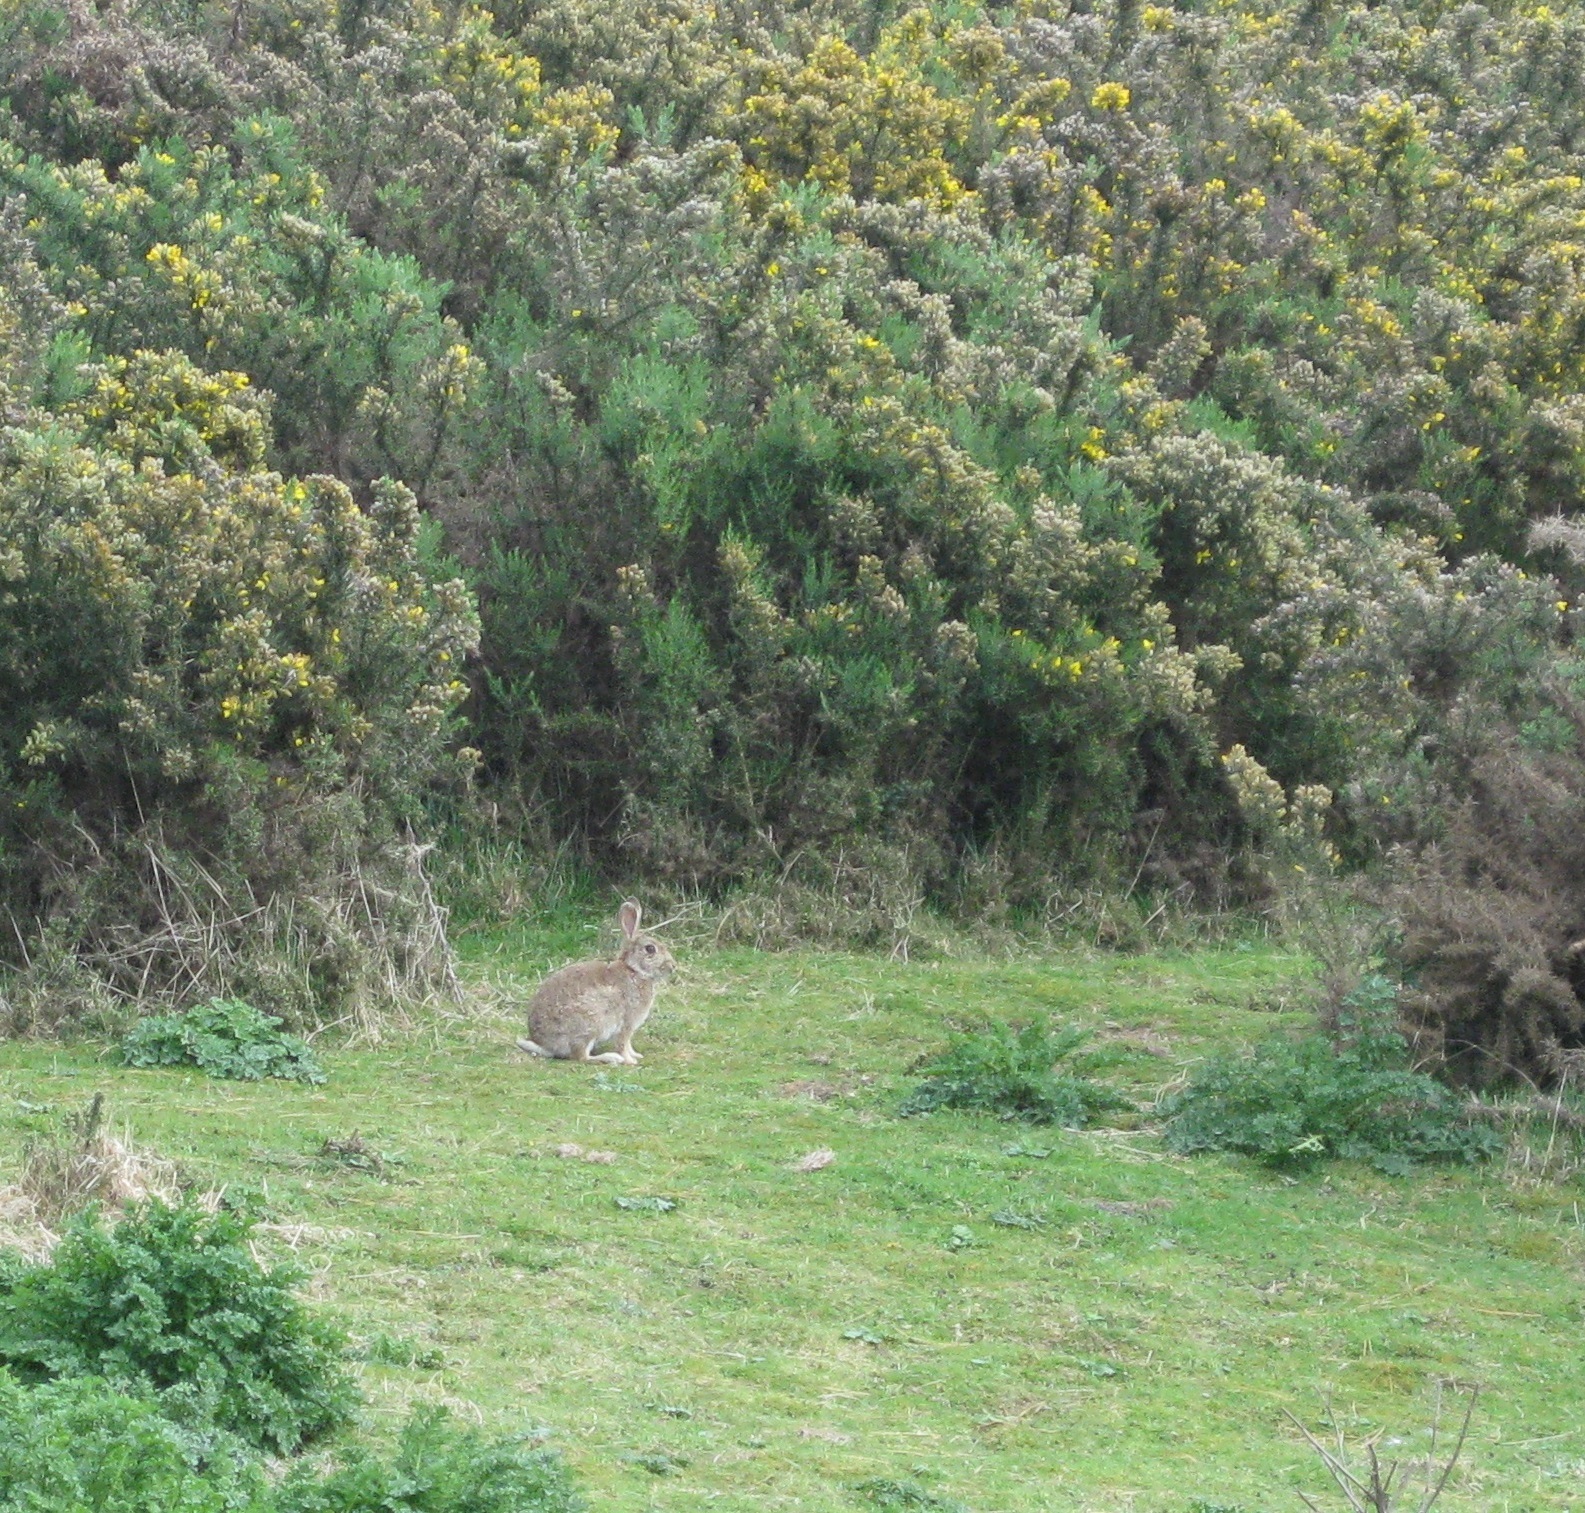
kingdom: Animalia
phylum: Chordata
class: Mammalia
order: Lagomorpha
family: Leporidae
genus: Oryctolagus
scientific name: Oryctolagus cuniculus
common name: European rabbit
